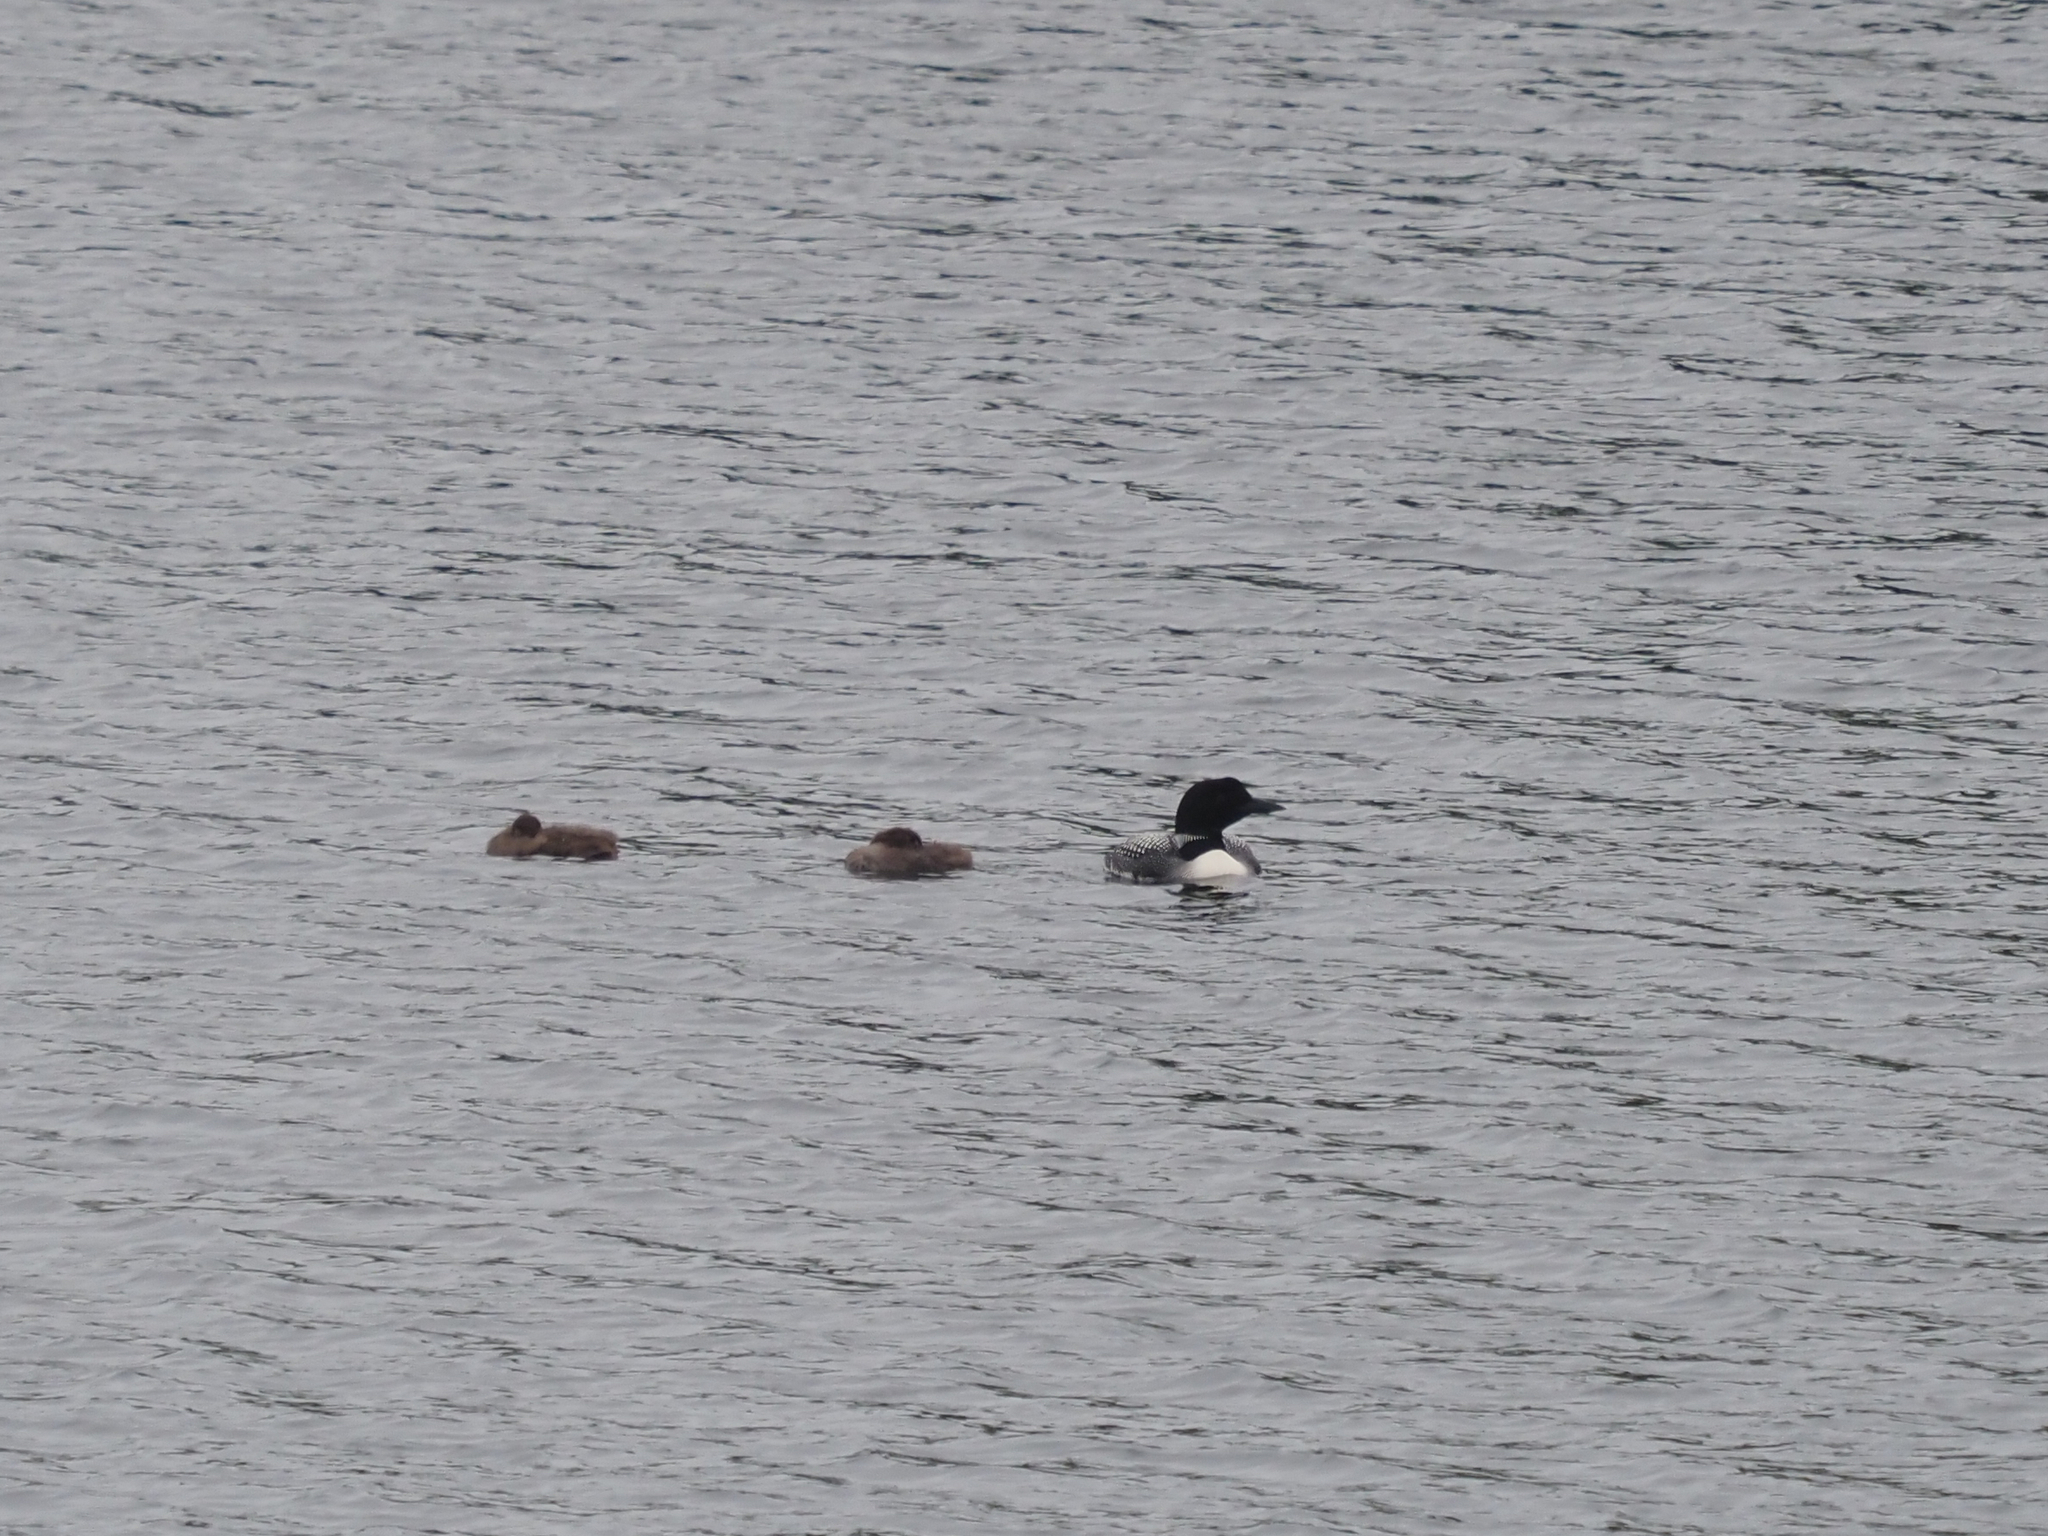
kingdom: Animalia
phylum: Chordata
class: Aves
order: Gaviiformes
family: Gaviidae
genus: Gavia
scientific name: Gavia immer
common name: Common loon
